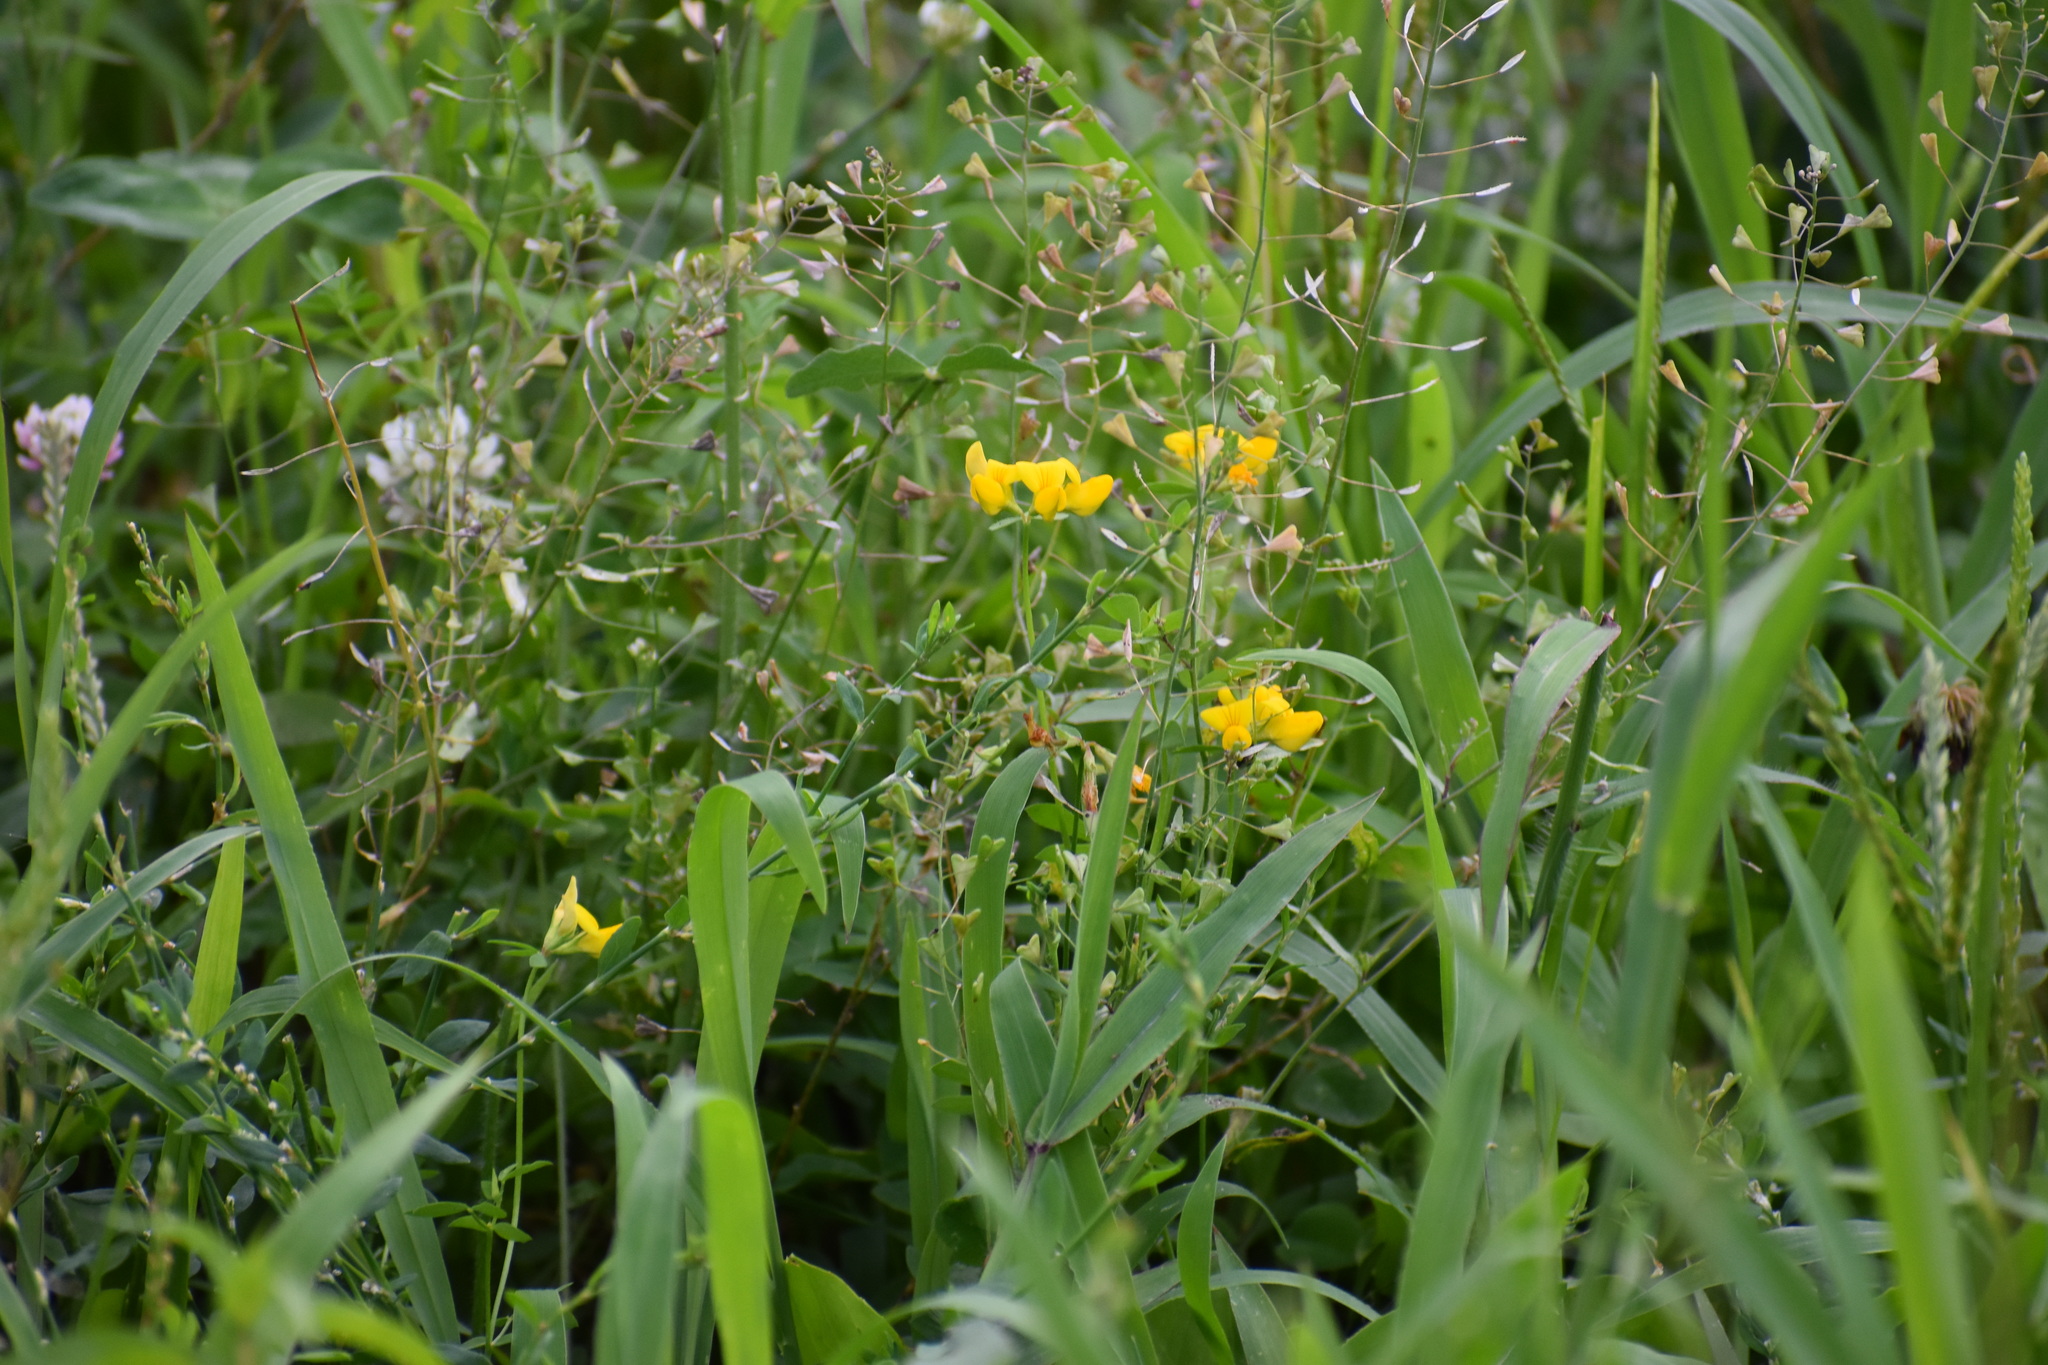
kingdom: Plantae
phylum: Tracheophyta
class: Magnoliopsida
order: Fabales
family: Fabaceae
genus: Lotus
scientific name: Lotus corniculatus
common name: Common bird's-foot-trefoil
